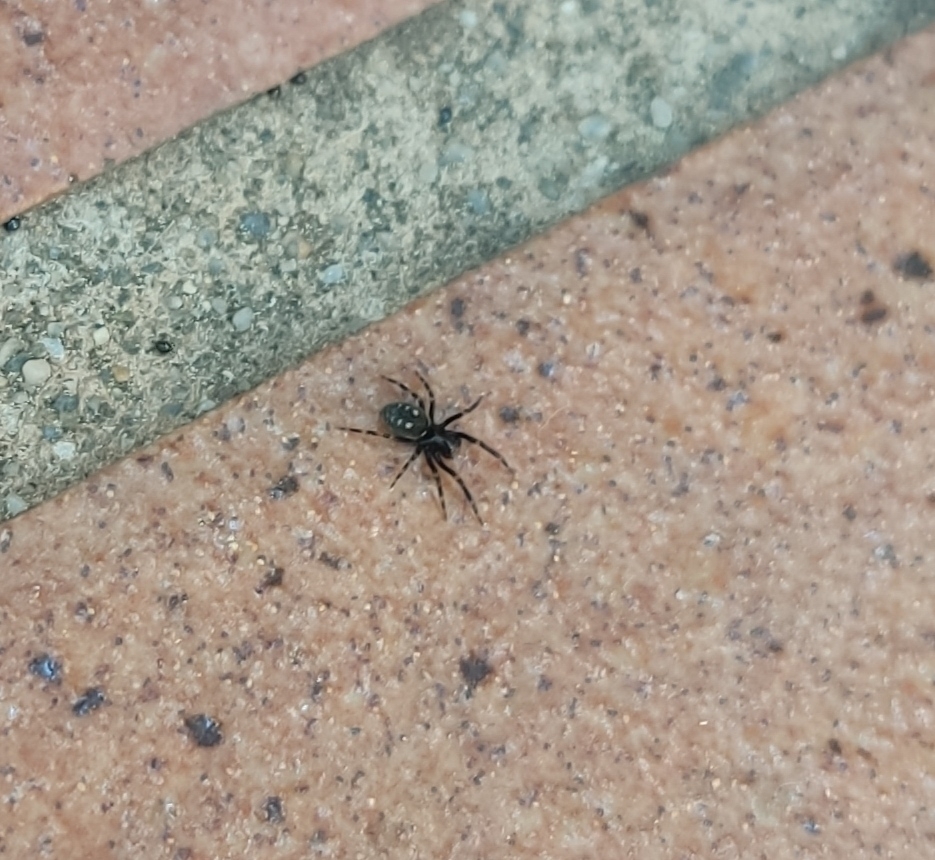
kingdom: Animalia
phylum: Arthropoda
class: Arachnida
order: Araneae
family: Titanoecidae
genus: Nurscia
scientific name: Nurscia albomaculata
